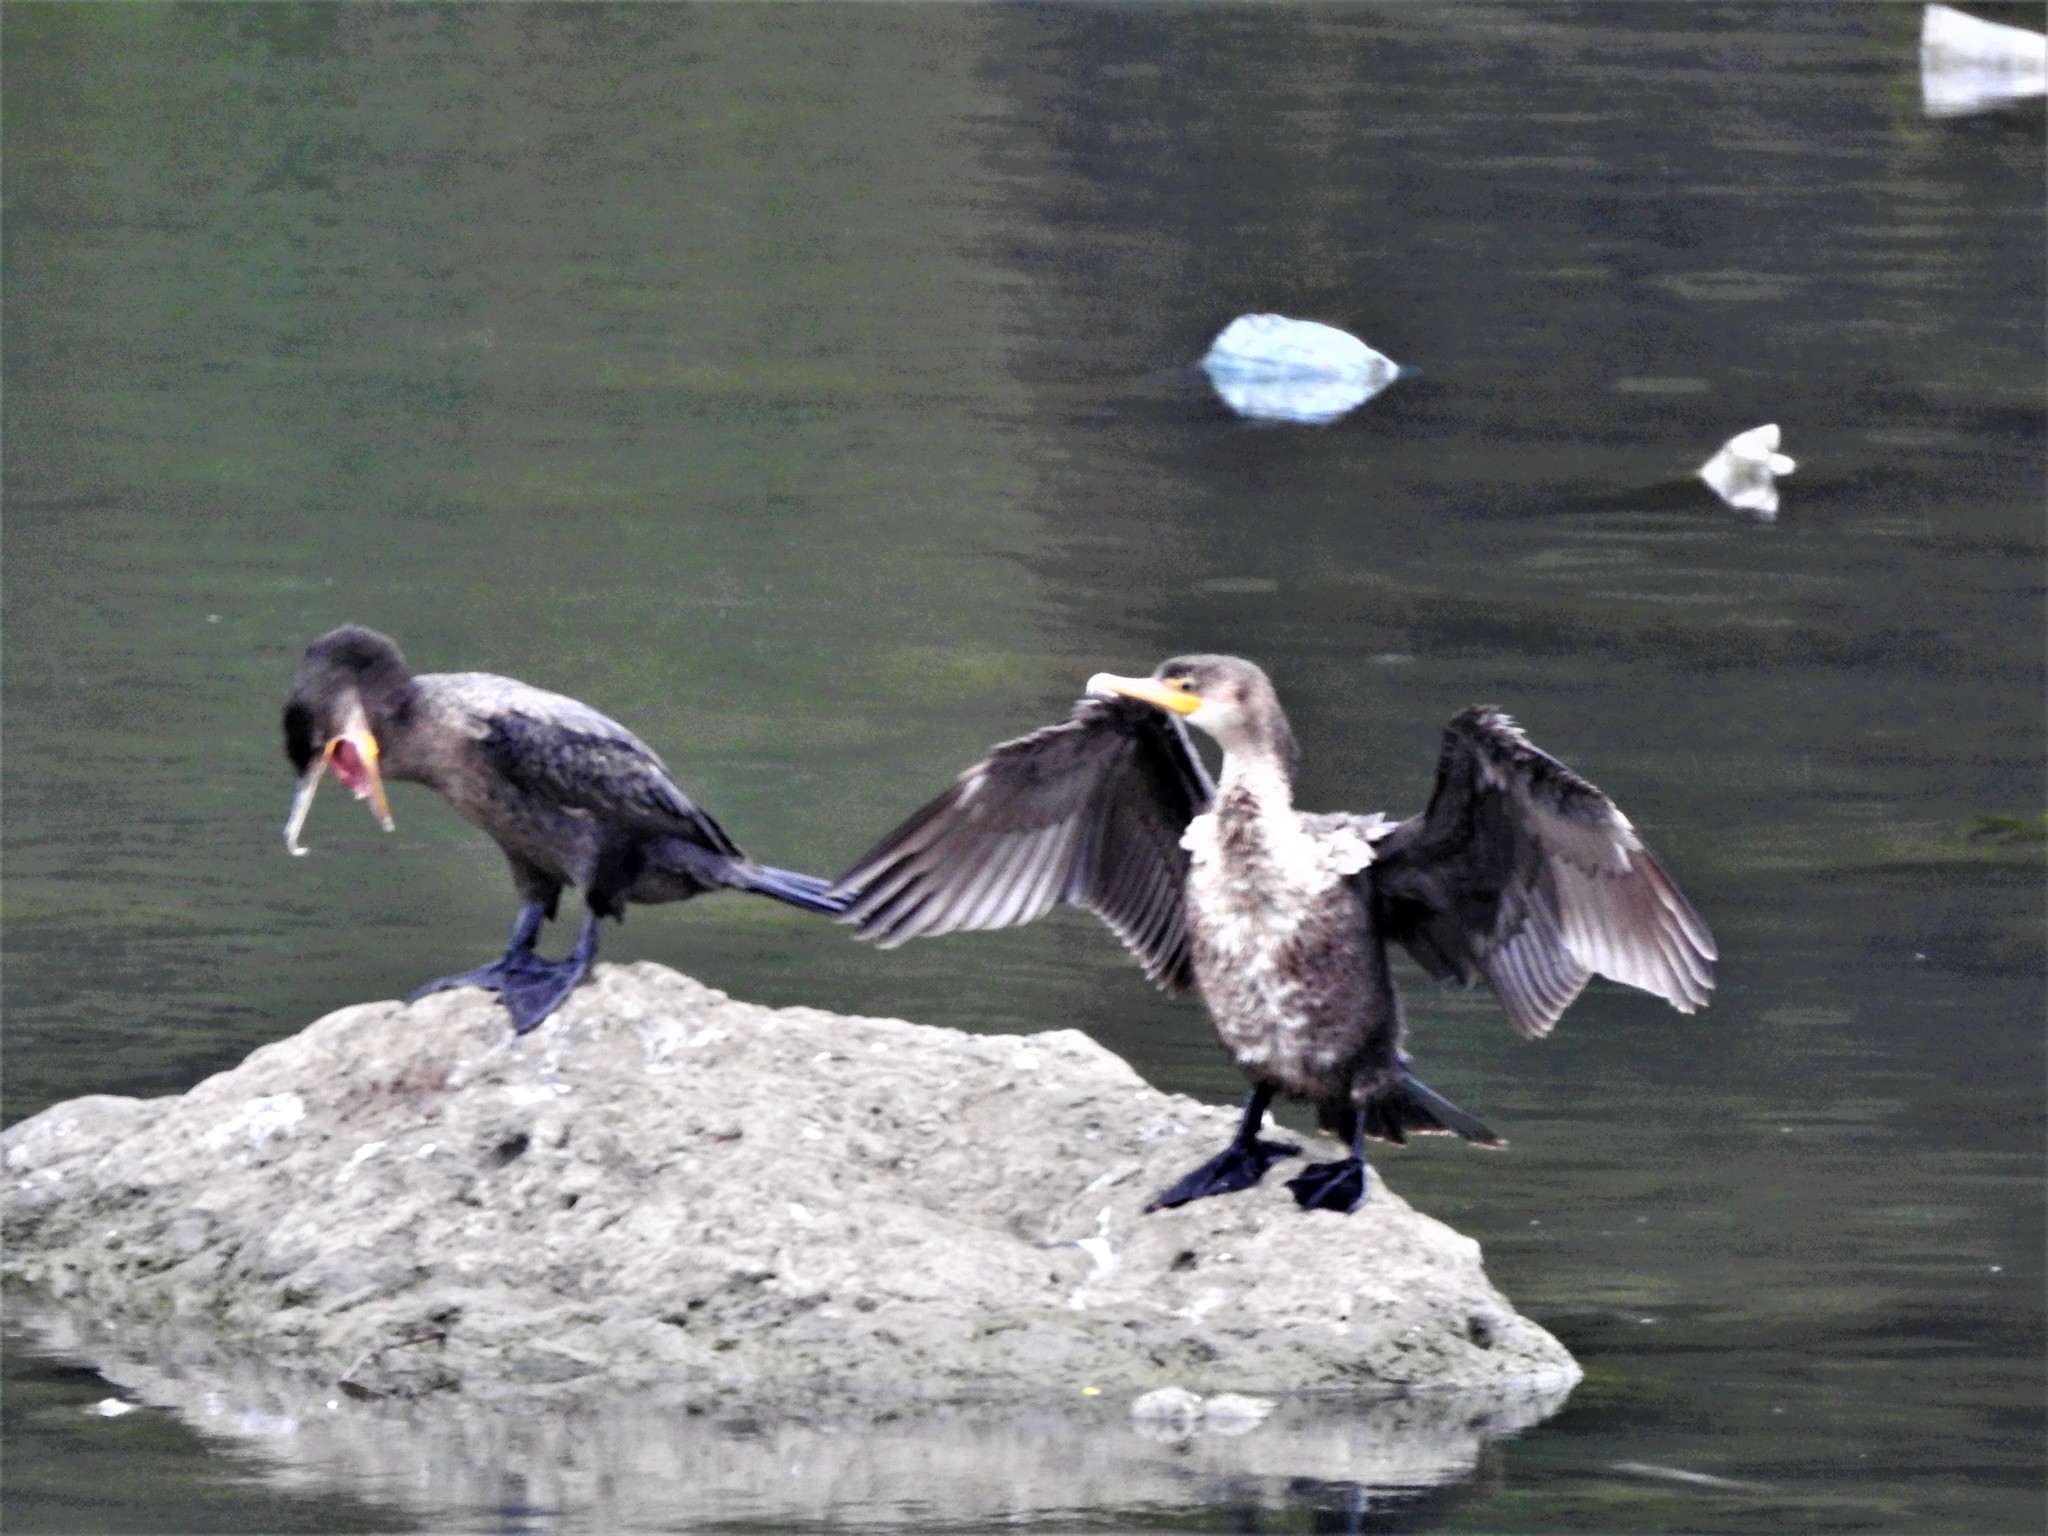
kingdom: Animalia
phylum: Chordata
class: Aves
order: Suliformes
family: Phalacrocoracidae
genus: Phalacrocorax
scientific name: Phalacrocorax brasilianus
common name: Neotropic cormorant
